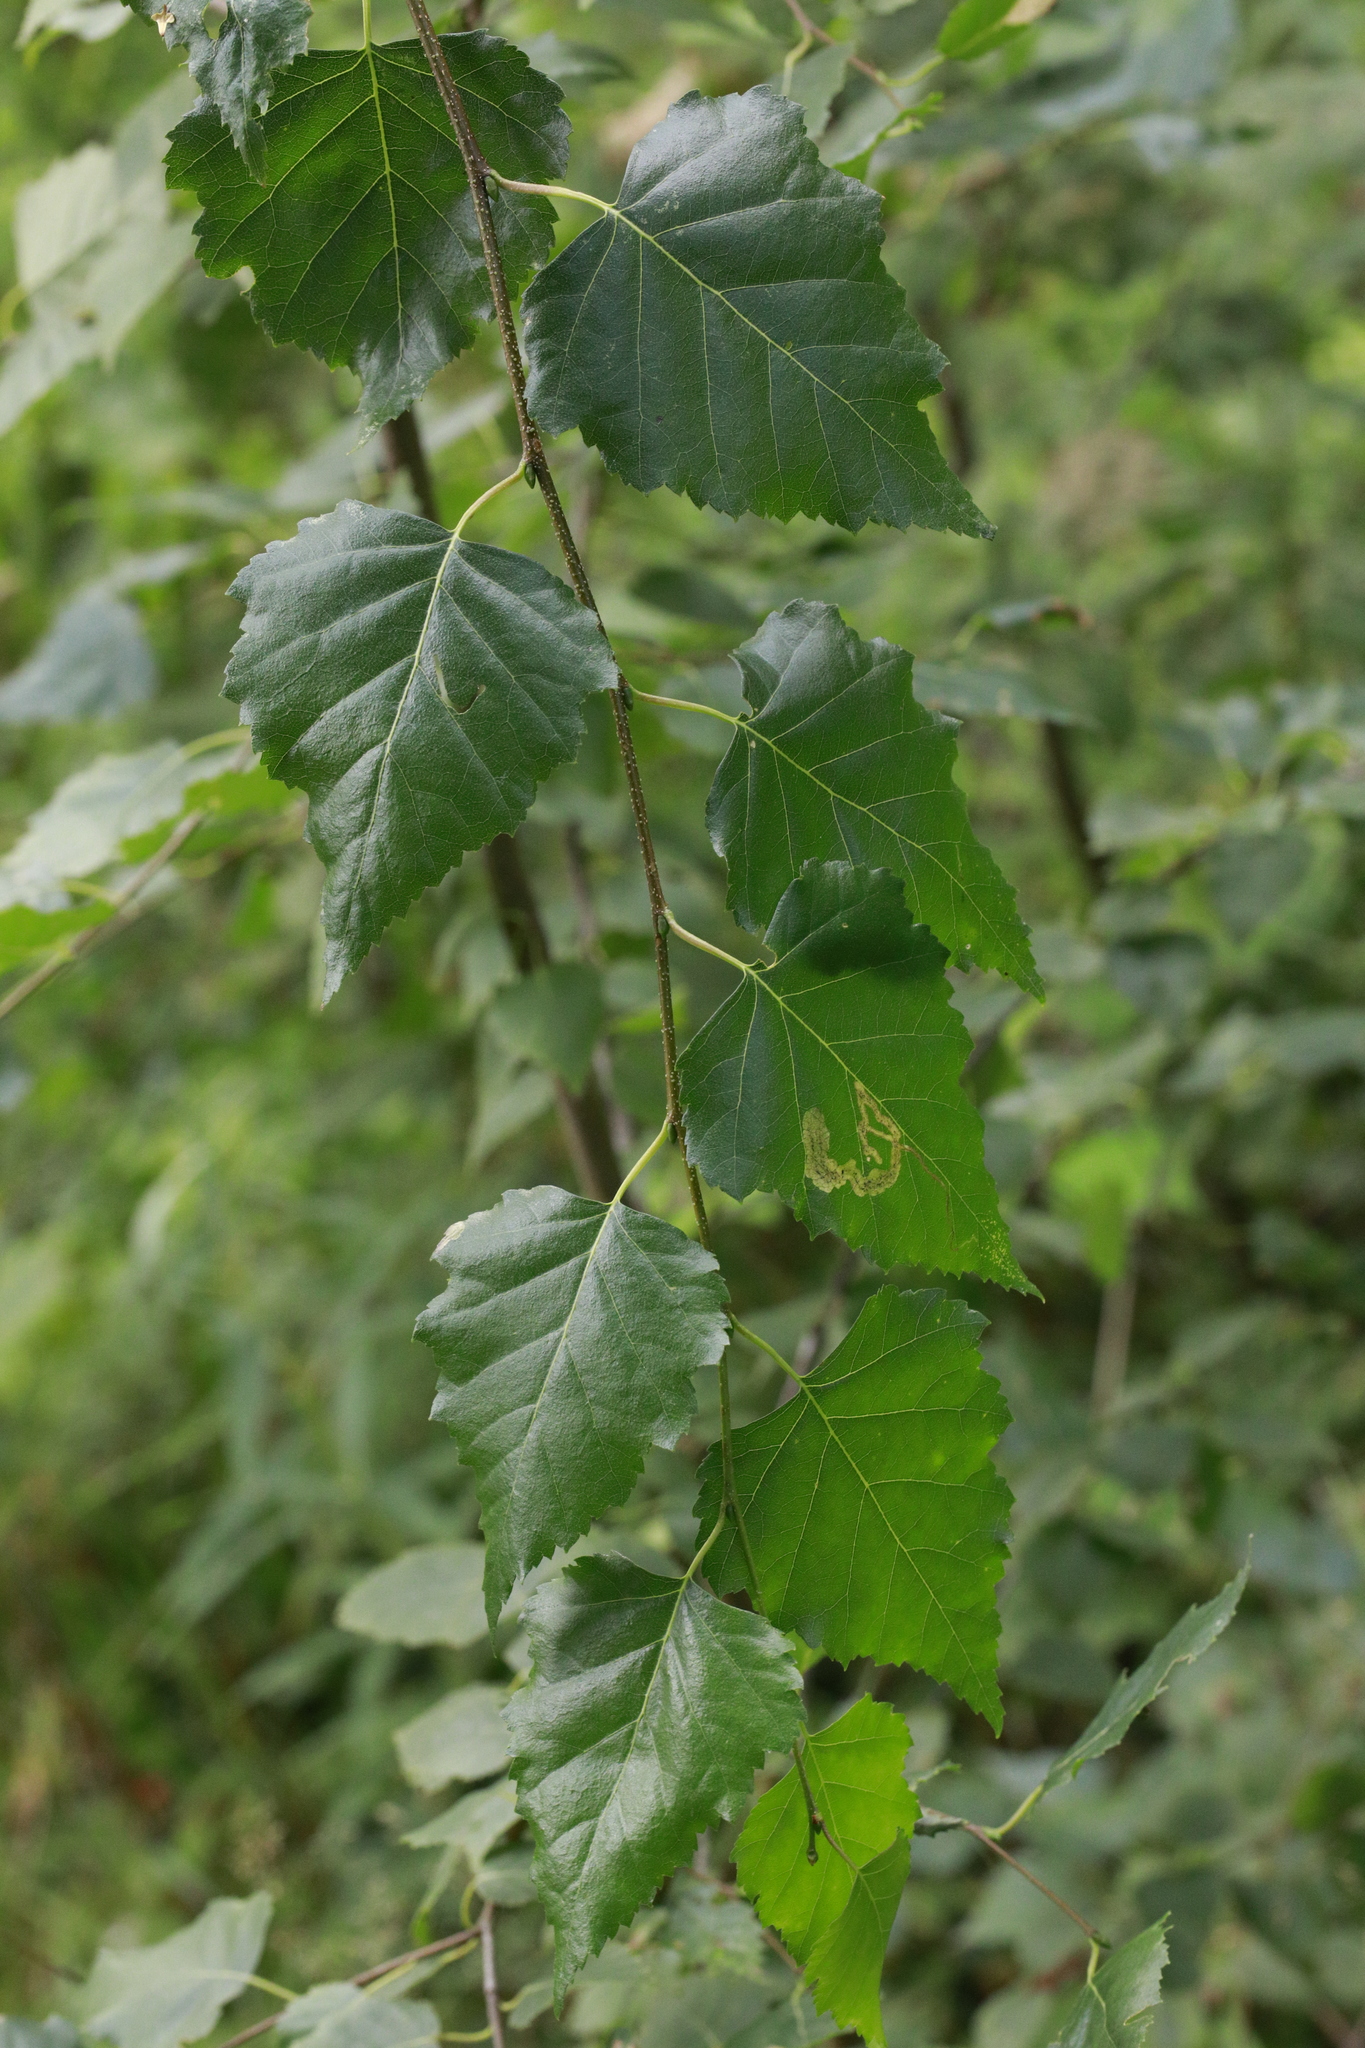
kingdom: Plantae
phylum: Tracheophyta
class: Magnoliopsida
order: Fagales
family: Betulaceae
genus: Betula
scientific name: Betula pendula
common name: Silver birch
